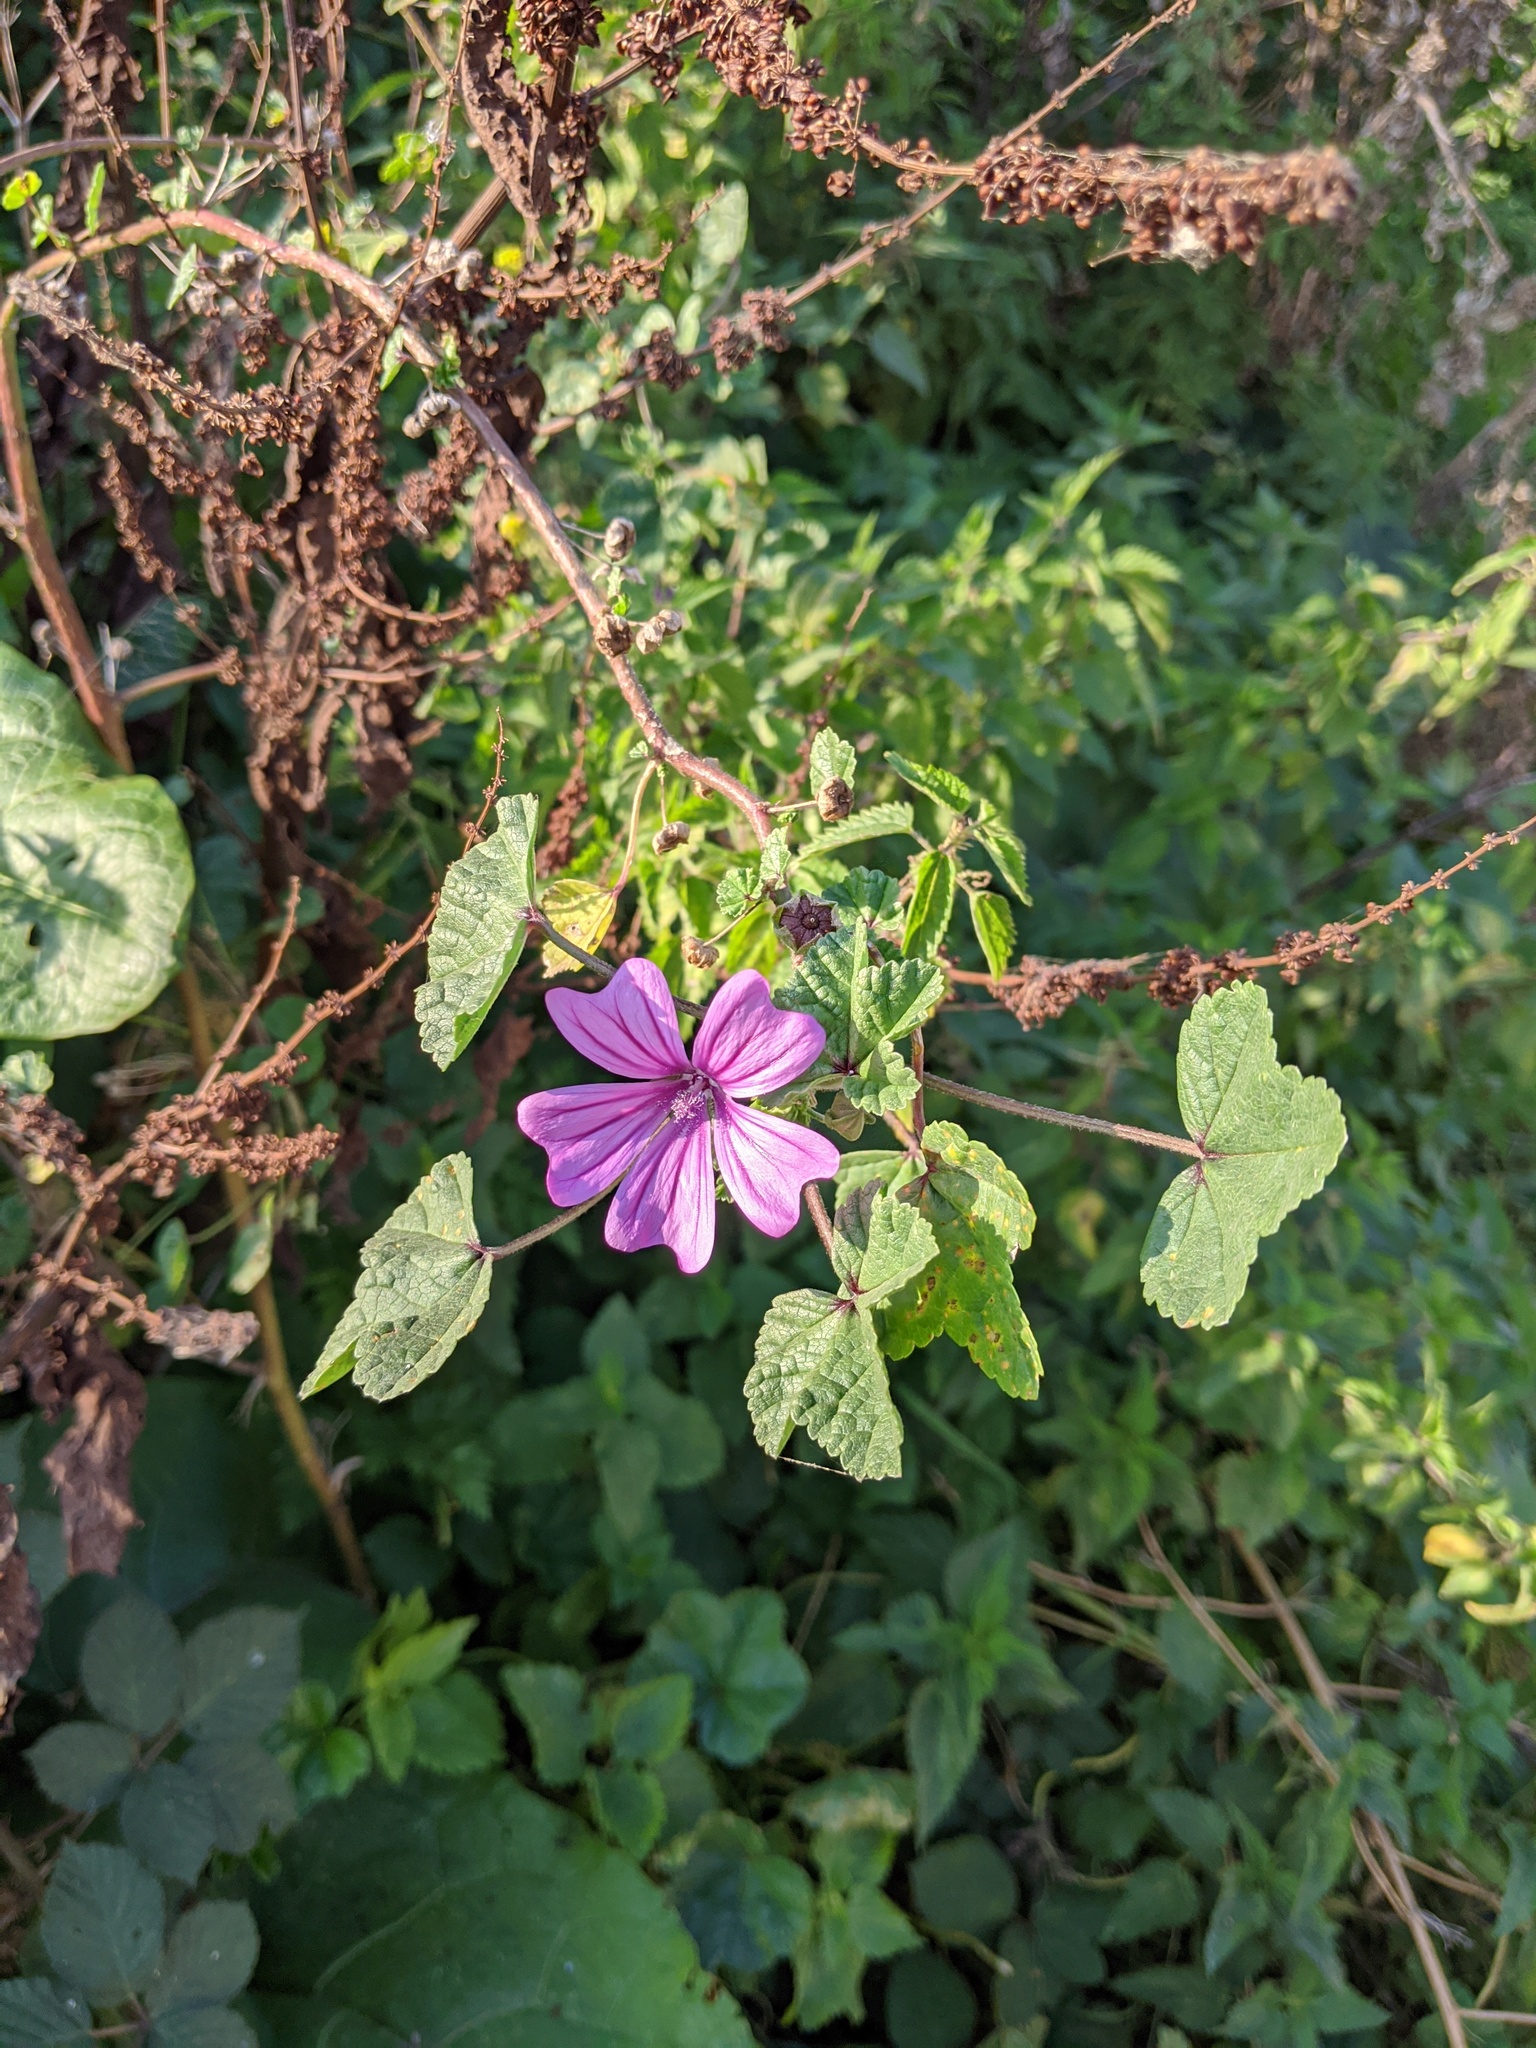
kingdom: Plantae
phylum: Tracheophyta
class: Magnoliopsida
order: Malvales
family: Malvaceae
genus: Malva
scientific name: Malva sylvestris
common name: Common mallow
